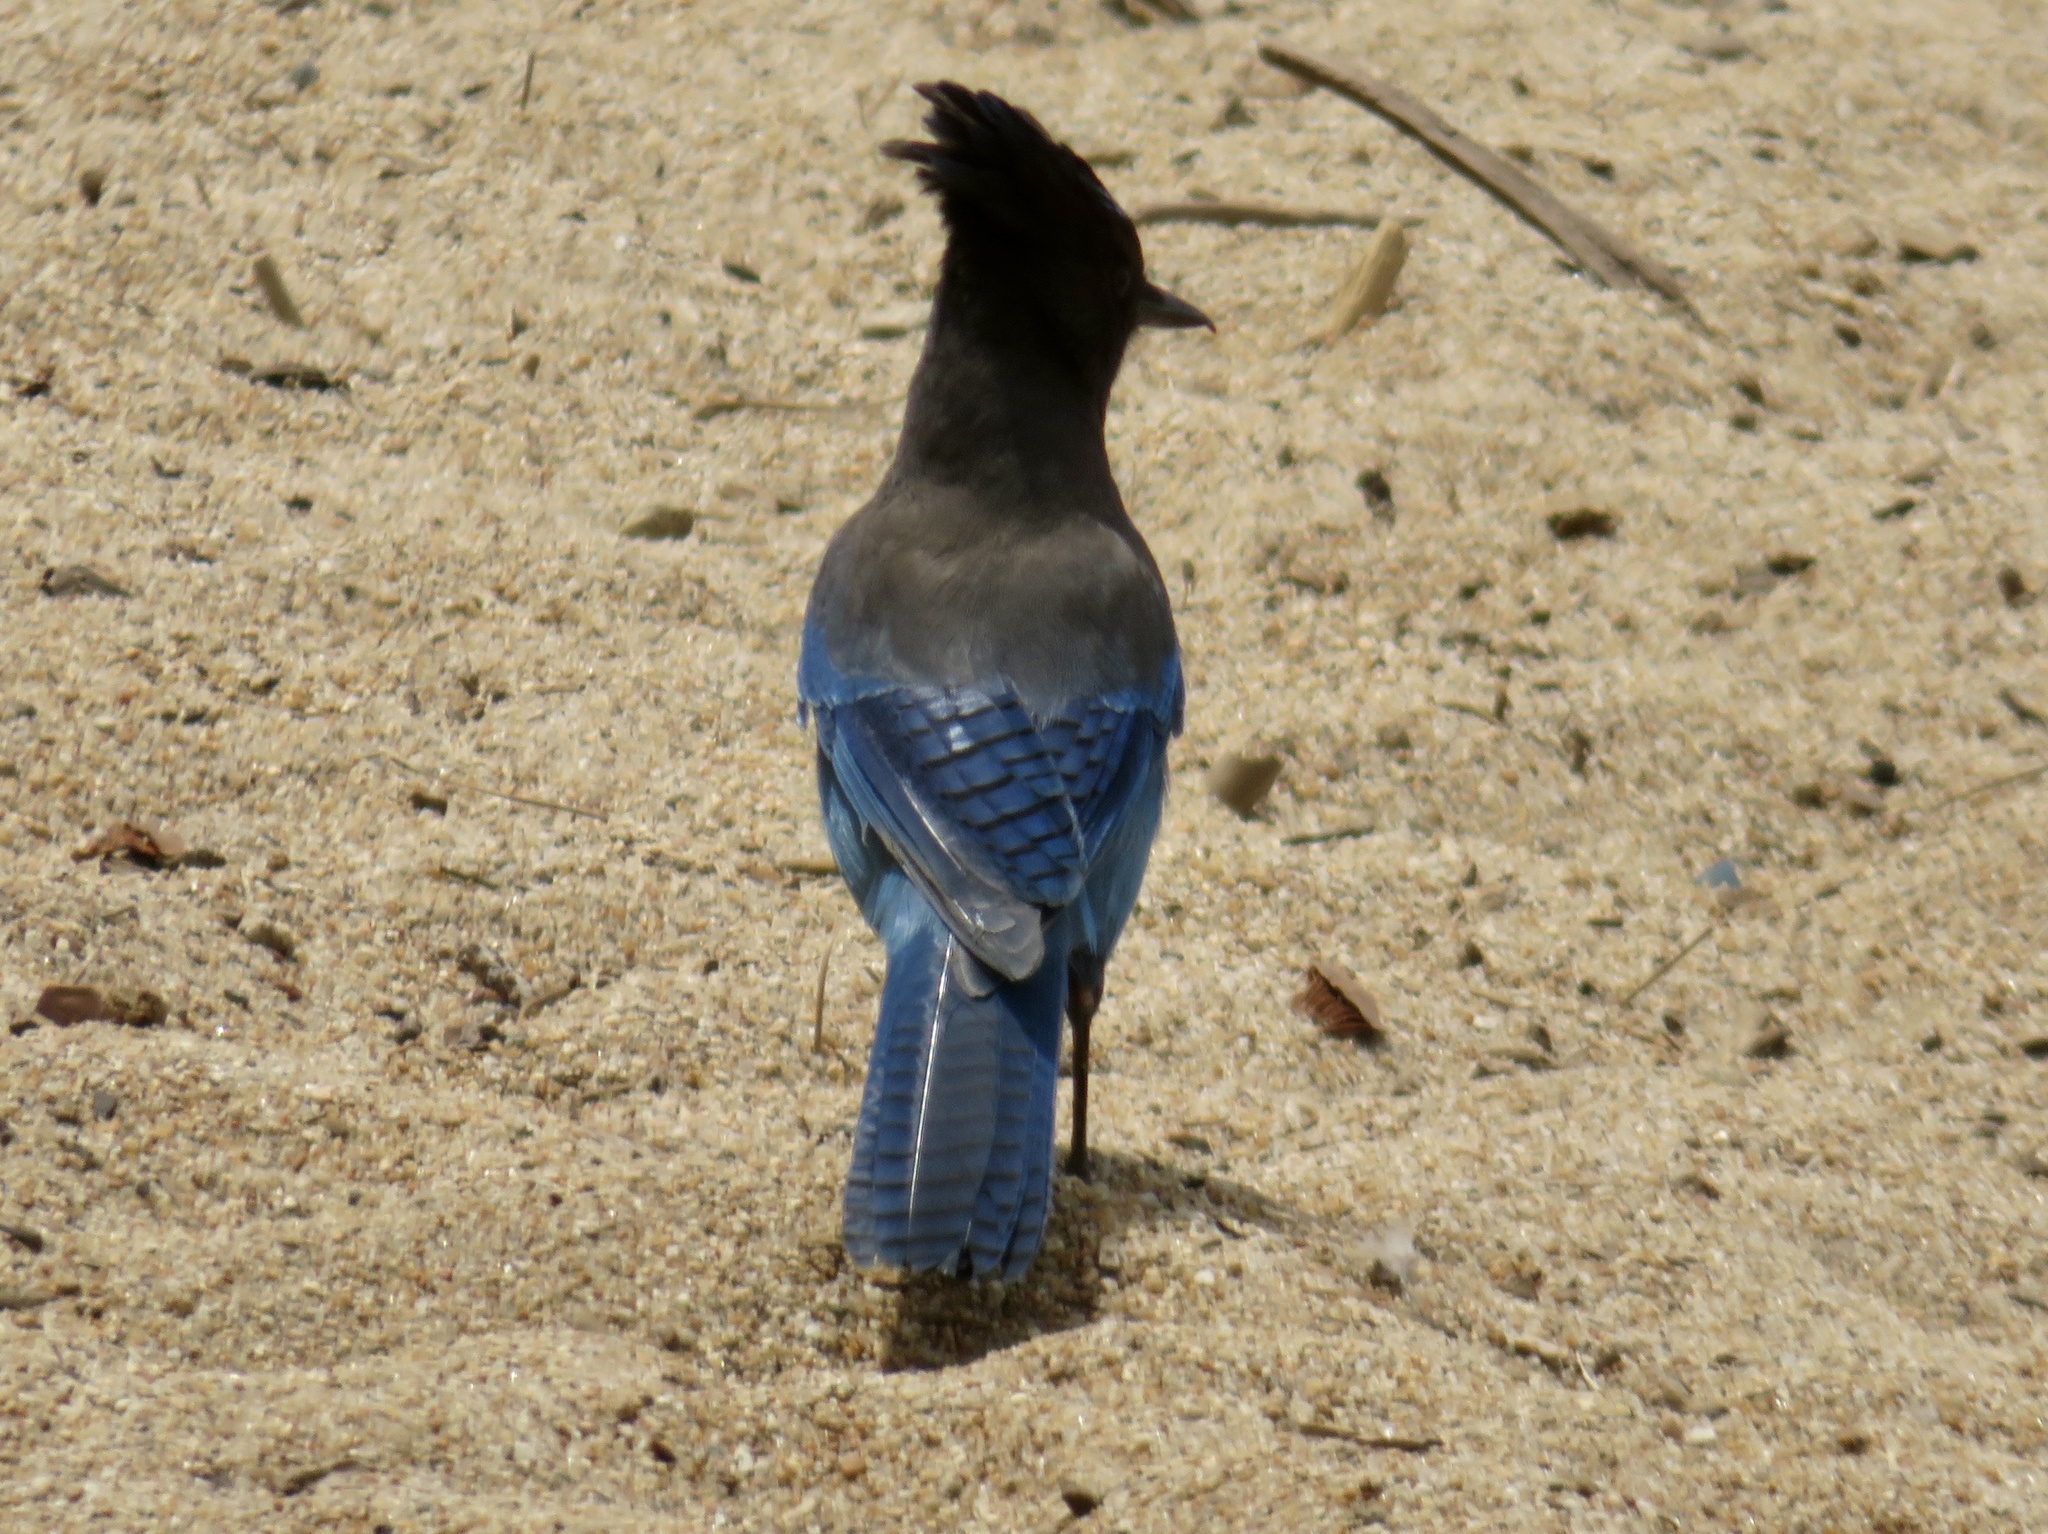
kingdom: Animalia
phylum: Chordata
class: Aves
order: Passeriformes
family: Corvidae
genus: Cyanocitta
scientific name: Cyanocitta stelleri
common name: Steller's jay
